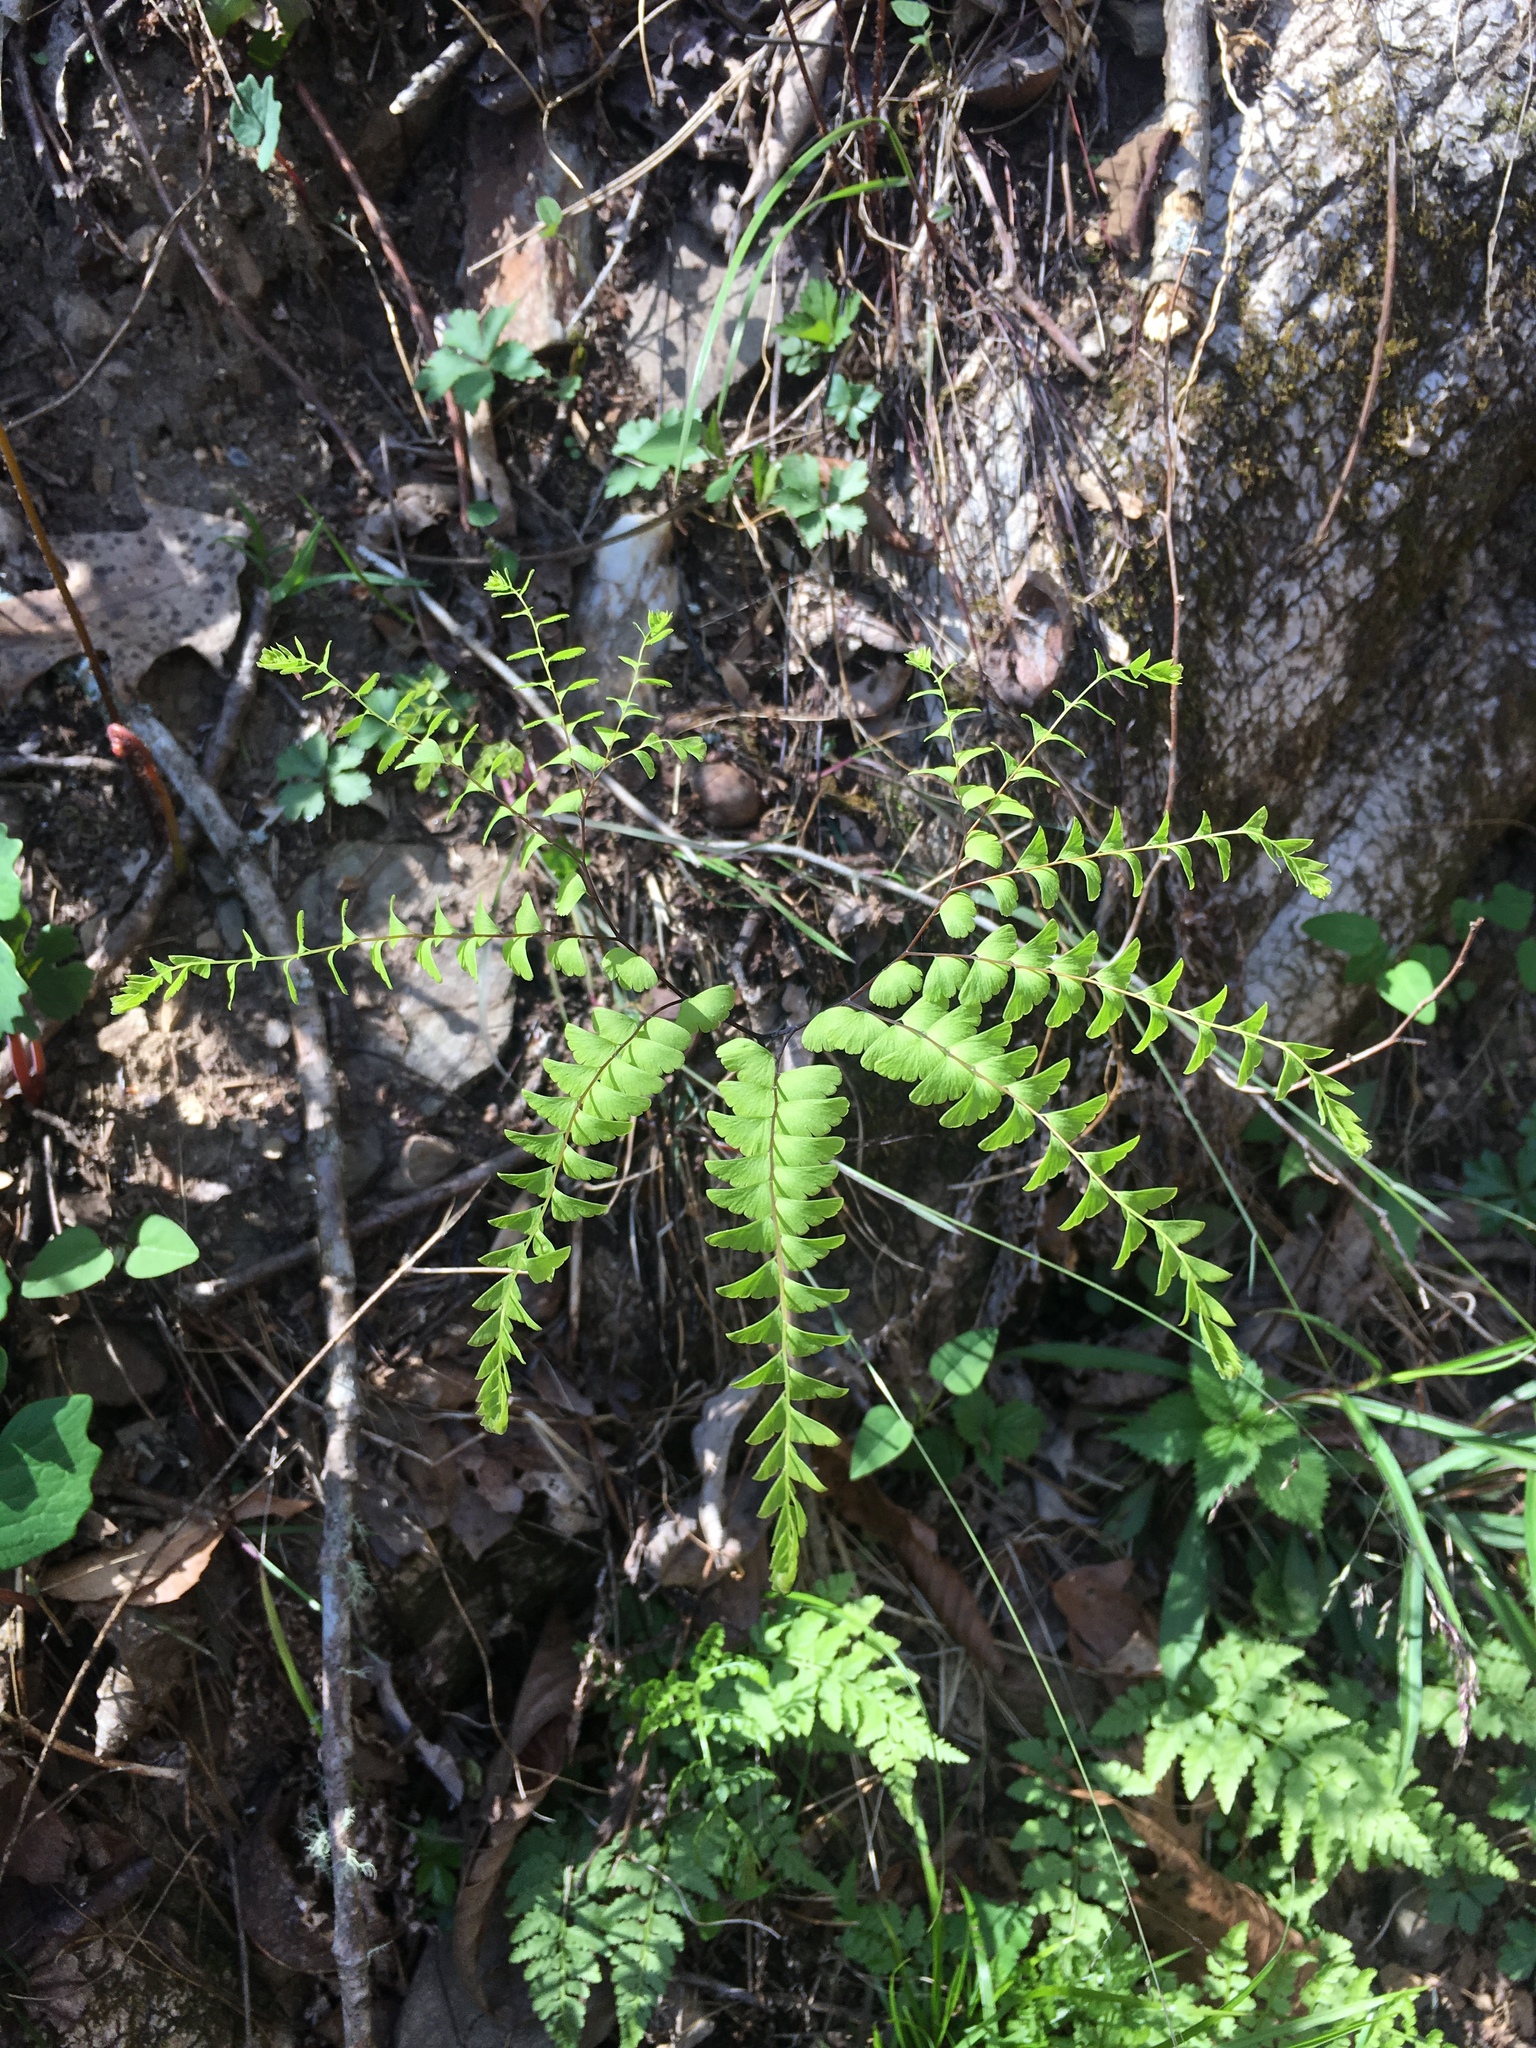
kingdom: Plantae
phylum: Tracheophyta
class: Polypodiopsida
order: Polypodiales
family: Pteridaceae
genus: Adiantum
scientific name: Adiantum pedatum
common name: Five-finger fern
